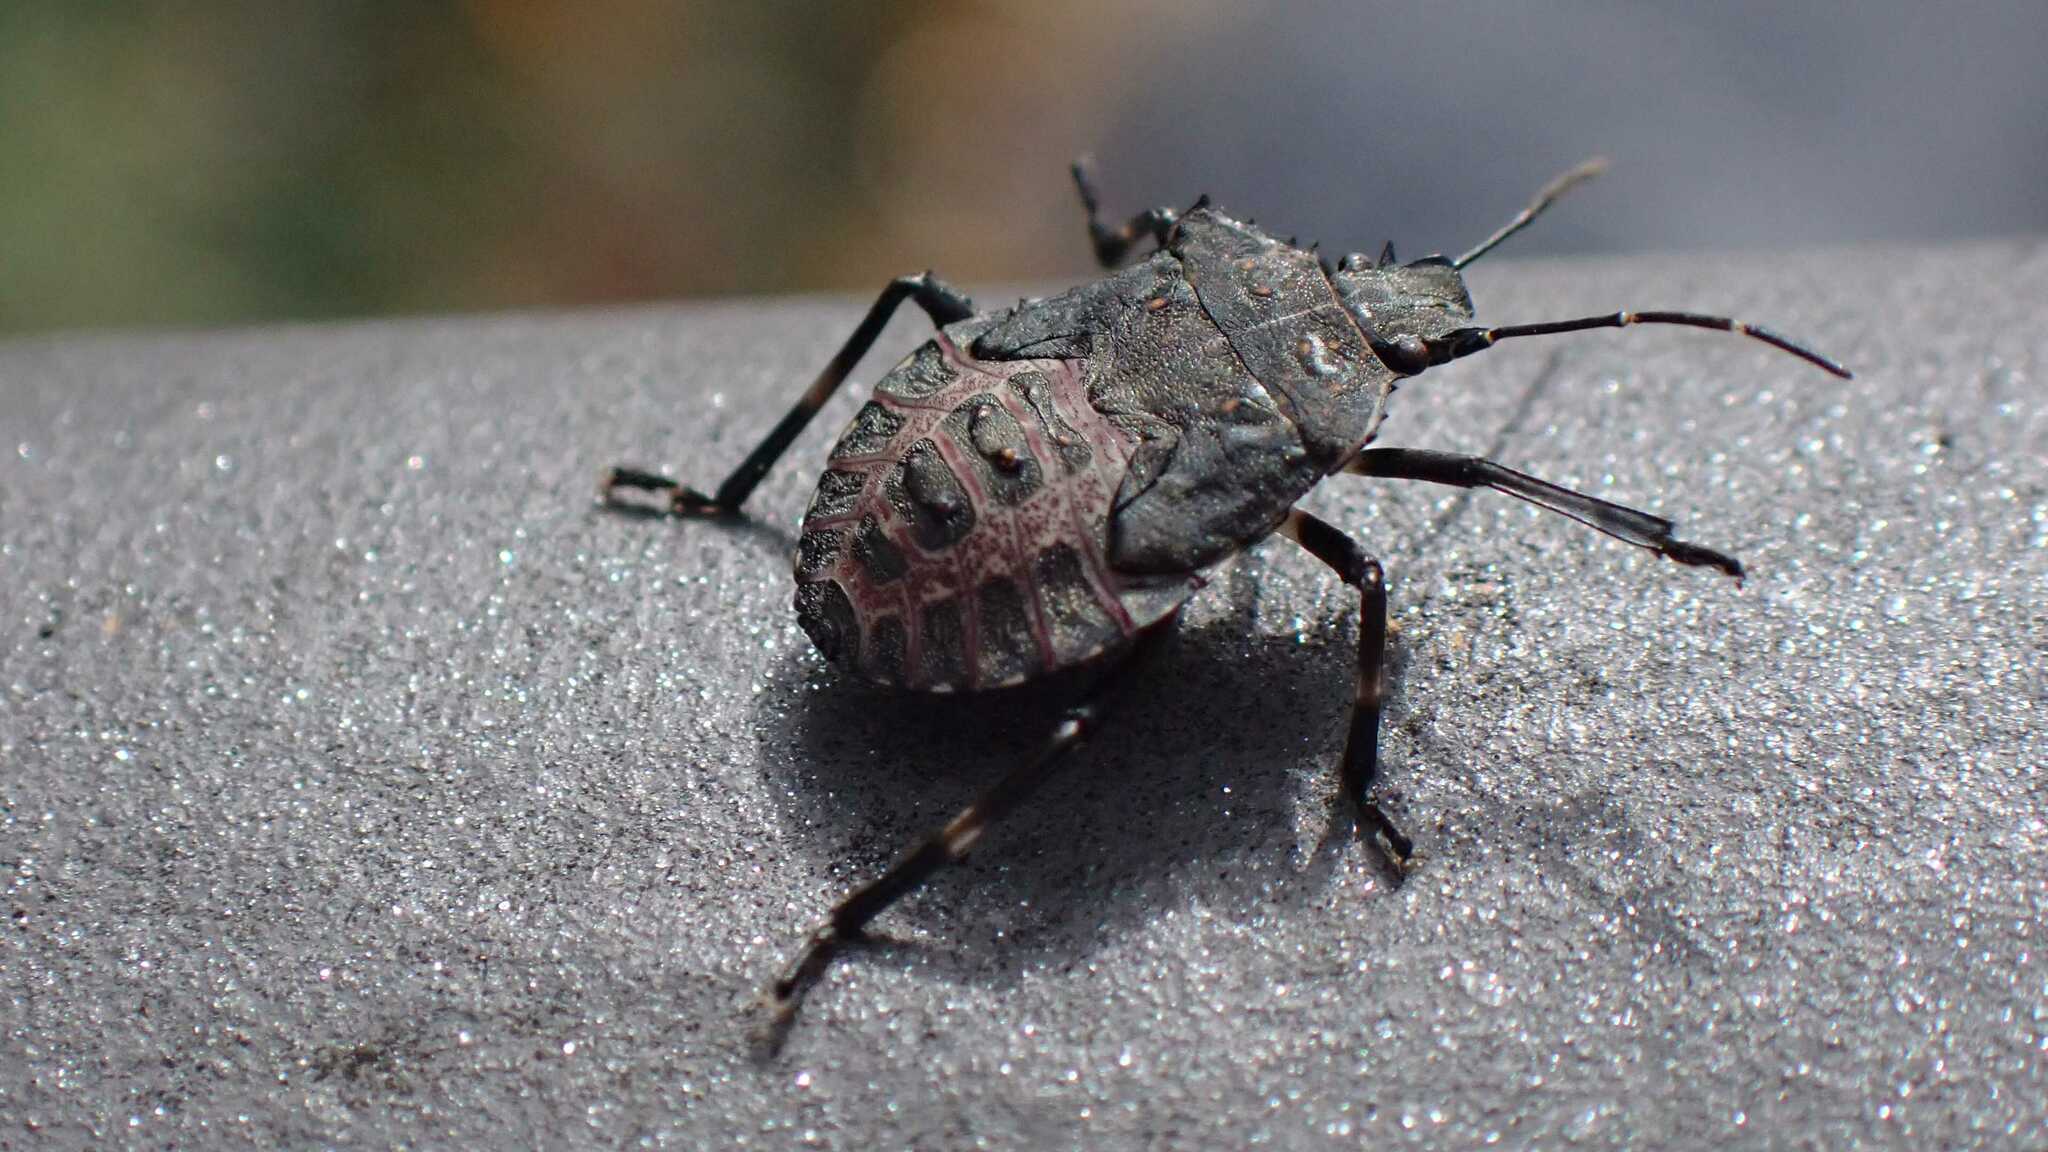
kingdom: Animalia
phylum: Arthropoda
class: Insecta
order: Hemiptera
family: Pentatomidae
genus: Halyomorpha
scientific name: Halyomorpha halys
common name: Brown marmorated stink bug
